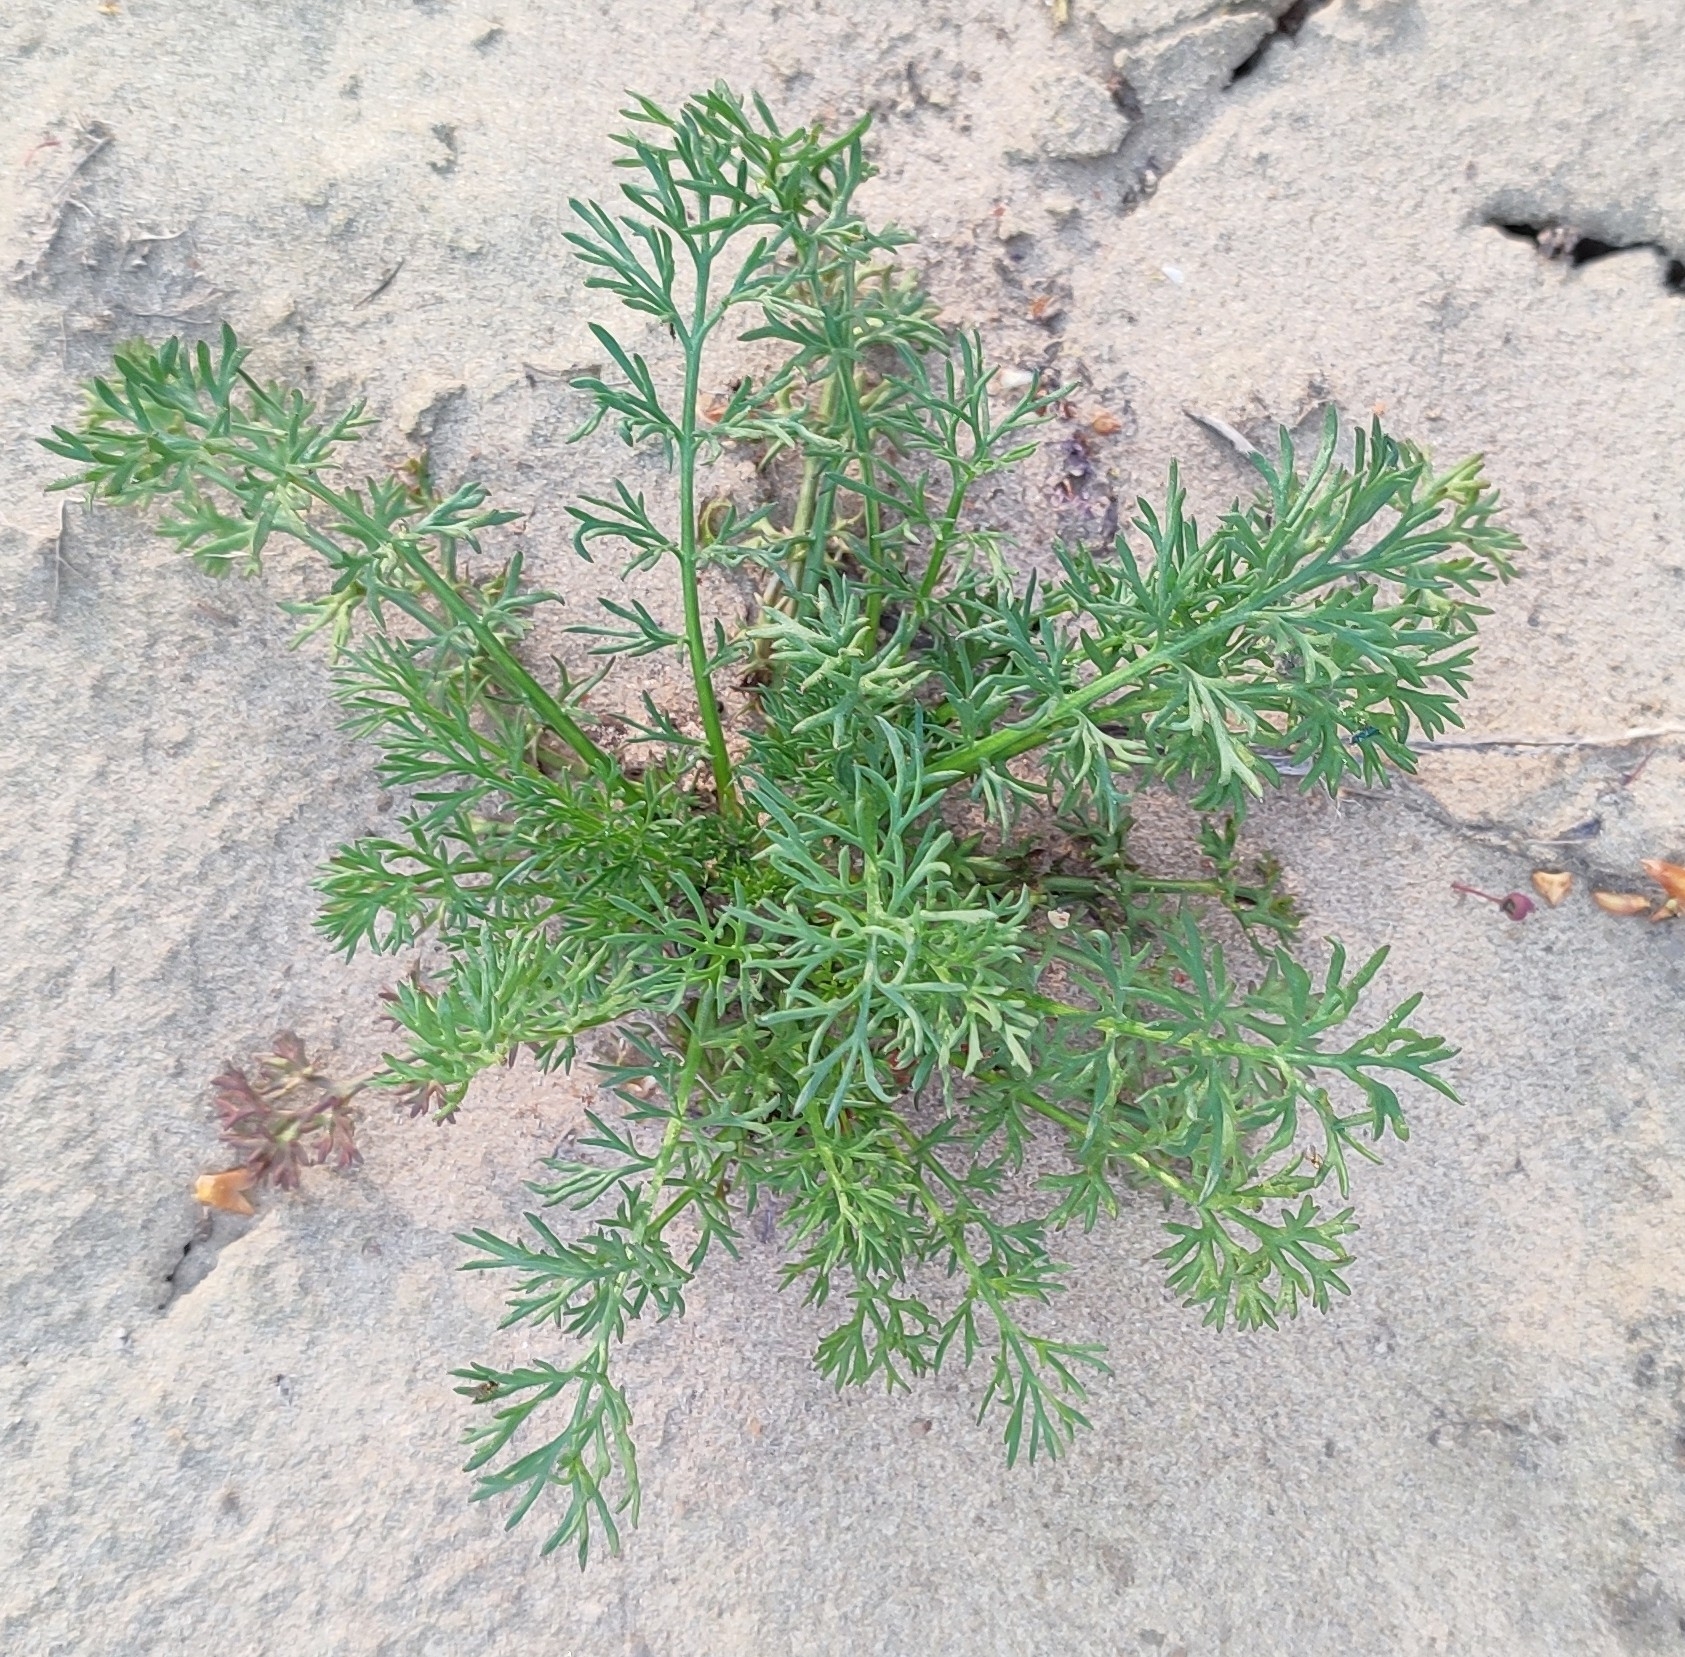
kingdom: Plantae
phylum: Tracheophyta
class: Magnoliopsida
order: Asterales
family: Asteraceae
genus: Tripleurospermum
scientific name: Tripleurospermum inodorum
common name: Scentless mayweed
